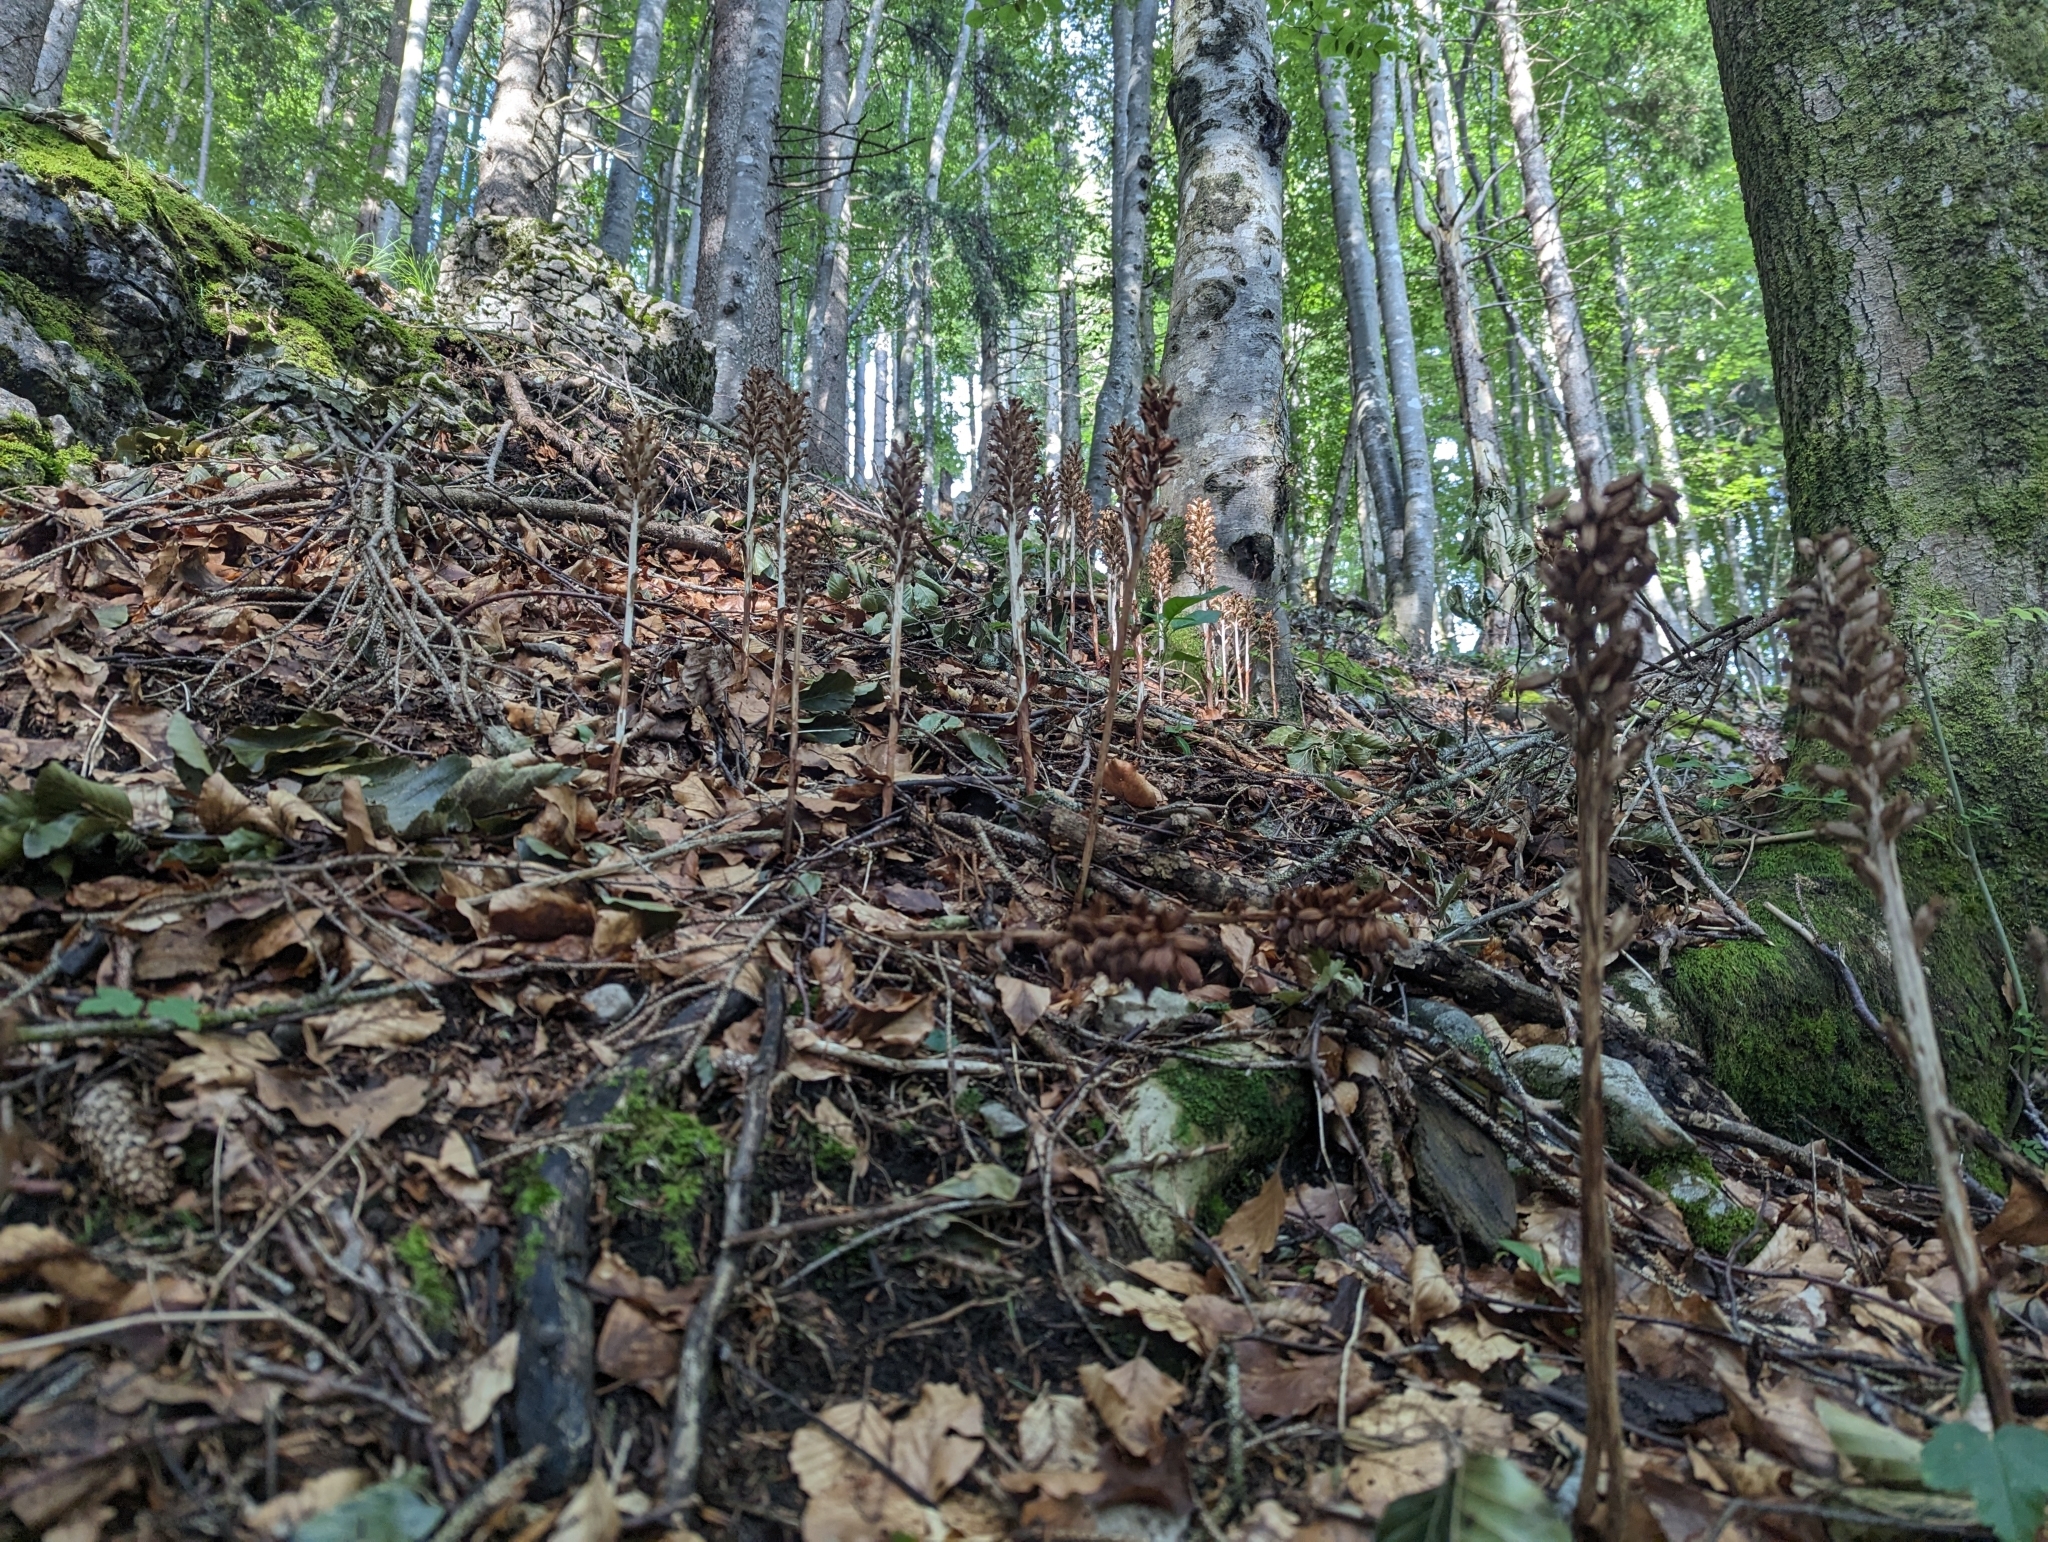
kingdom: Plantae
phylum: Tracheophyta
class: Liliopsida
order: Asparagales
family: Orchidaceae
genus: Neottia
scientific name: Neottia nidus-avis
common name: Bird's-nest orchid
